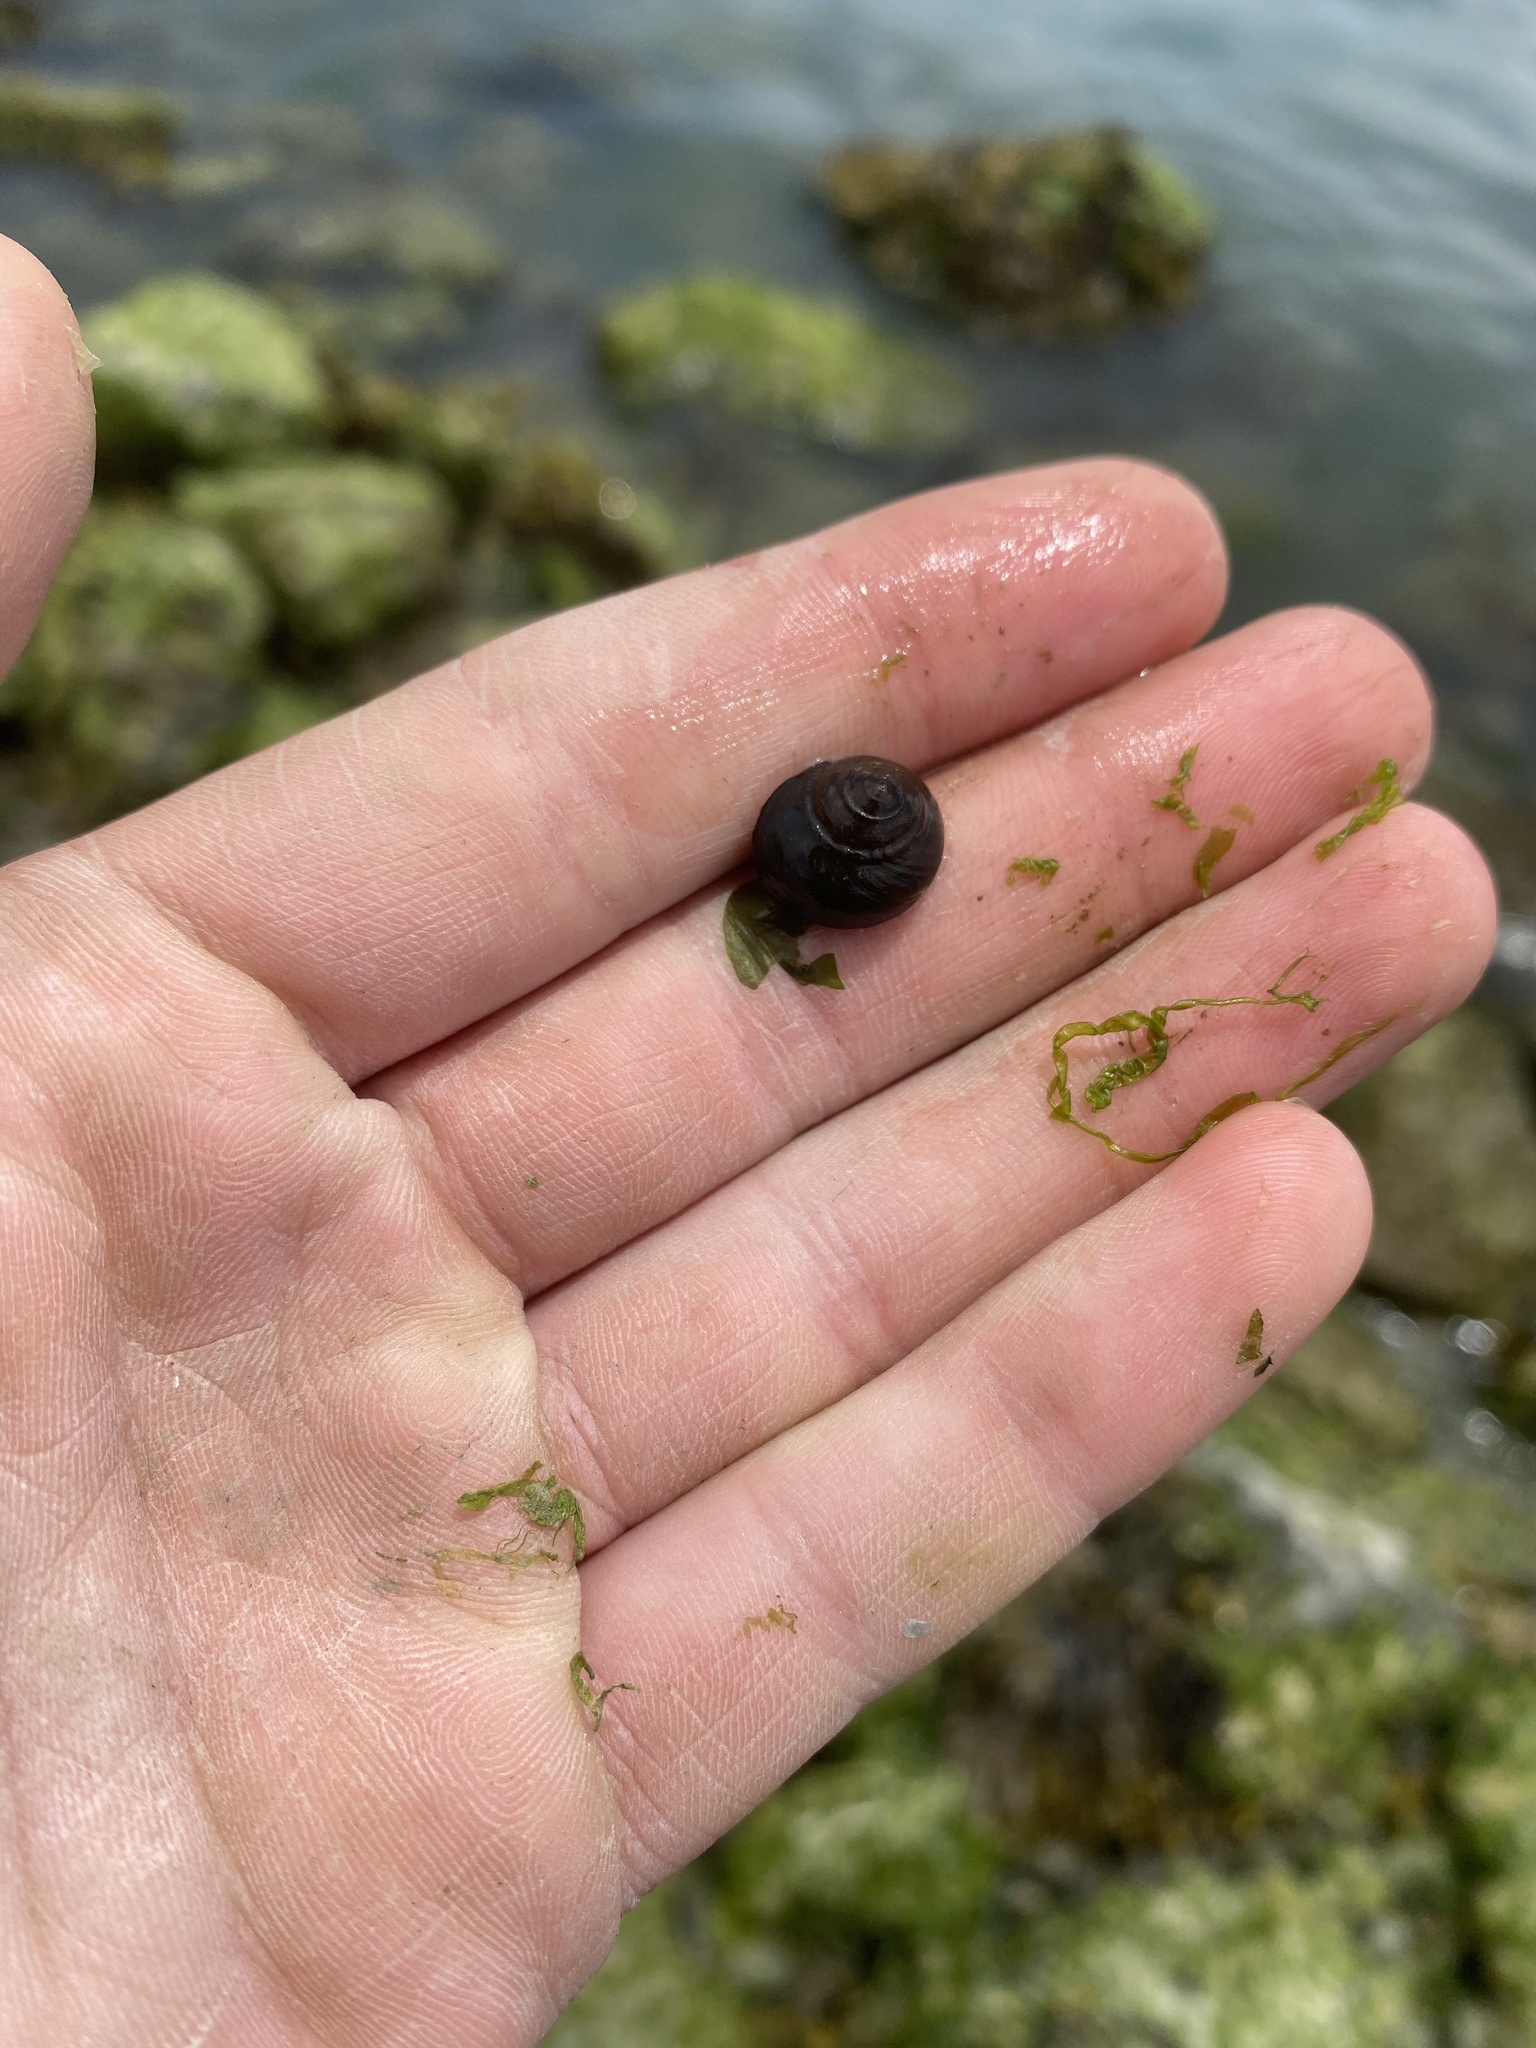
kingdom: Animalia
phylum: Mollusca
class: Gastropoda
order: Trochida
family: Tegulidae
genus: Tegula
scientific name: Tegula funebralis
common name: Black tegula
